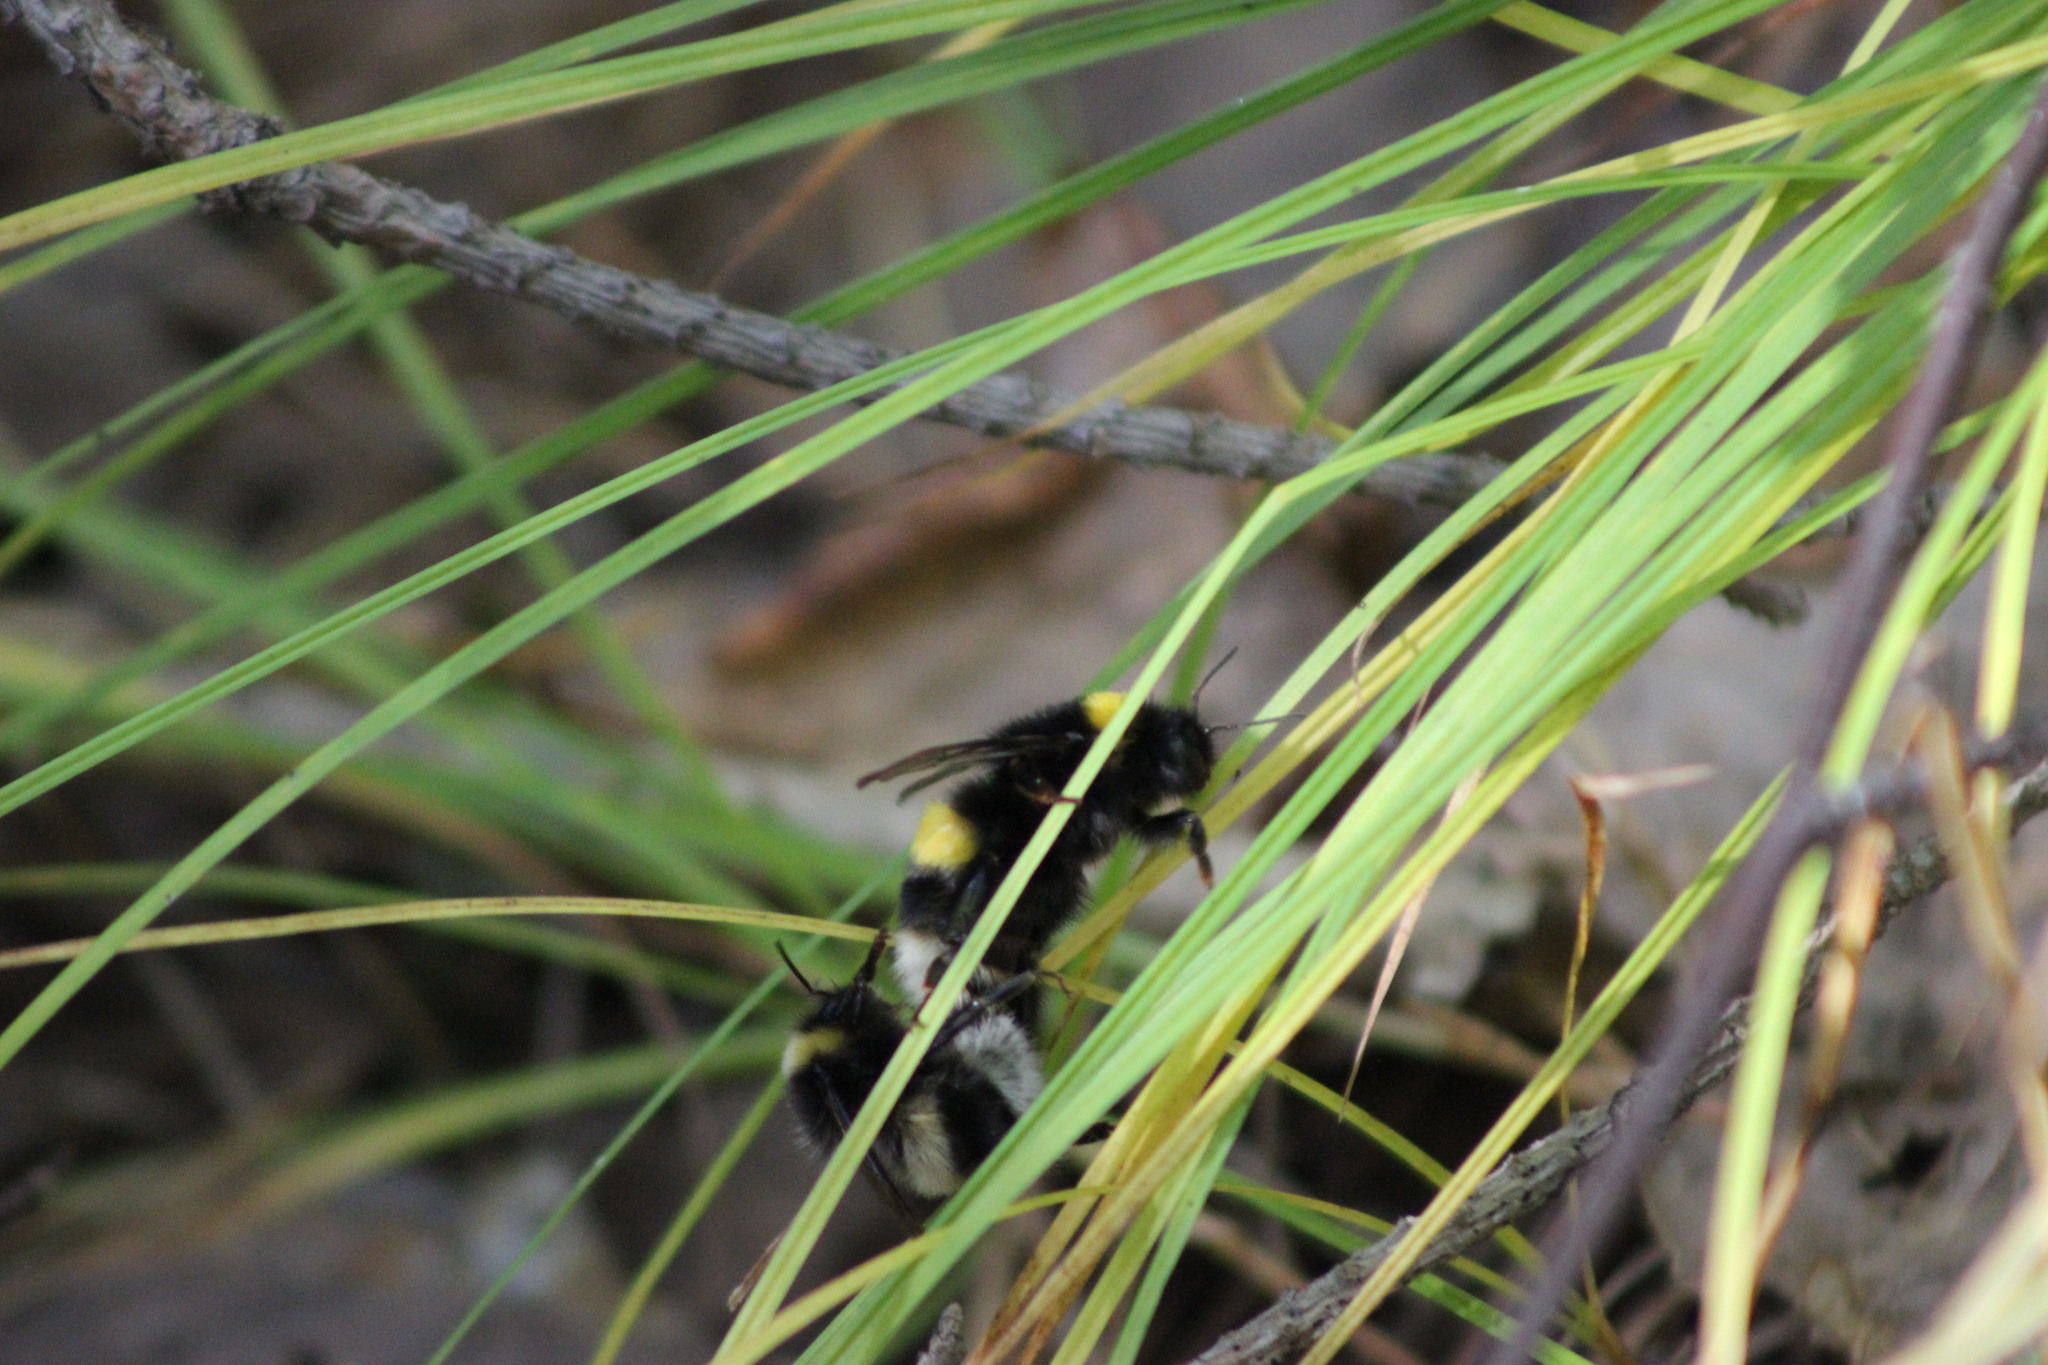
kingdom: Animalia
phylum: Arthropoda
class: Insecta
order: Hymenoptera
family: Apidae
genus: Bombus
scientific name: Bombus cryptarum
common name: Cryptic bumblebee
